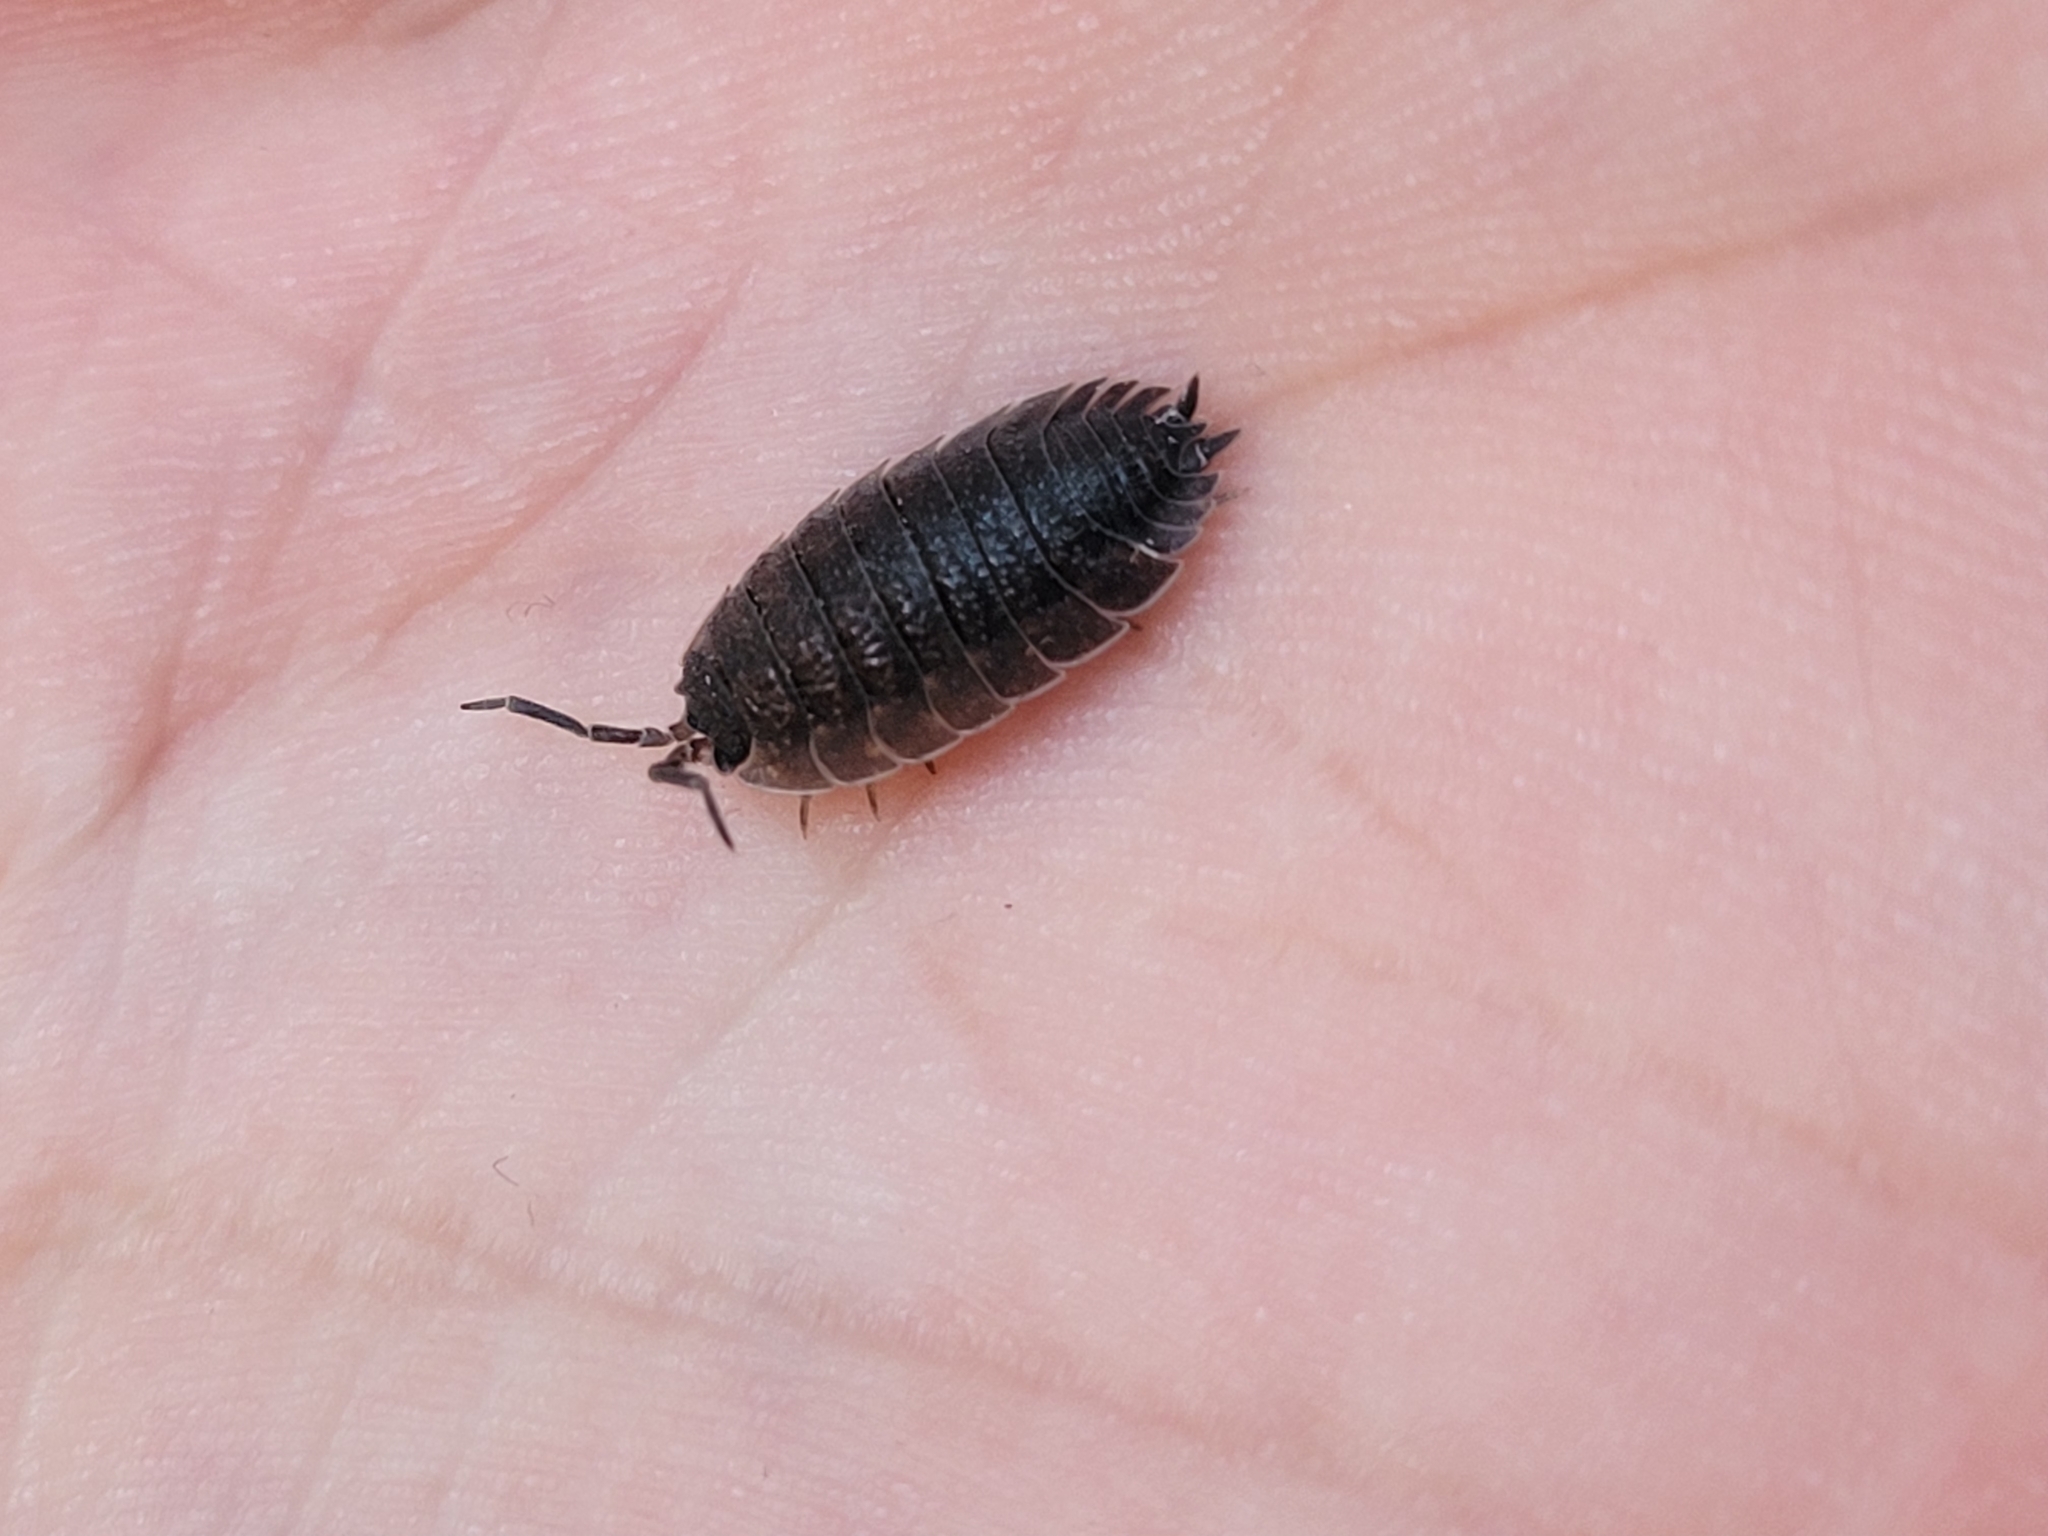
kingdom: Animalia
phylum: Arthropoda
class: Malacostraca
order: Isopoda
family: Porcellionidae
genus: Porcellio
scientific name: Porcellio scaber
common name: Common rough woodlouse
